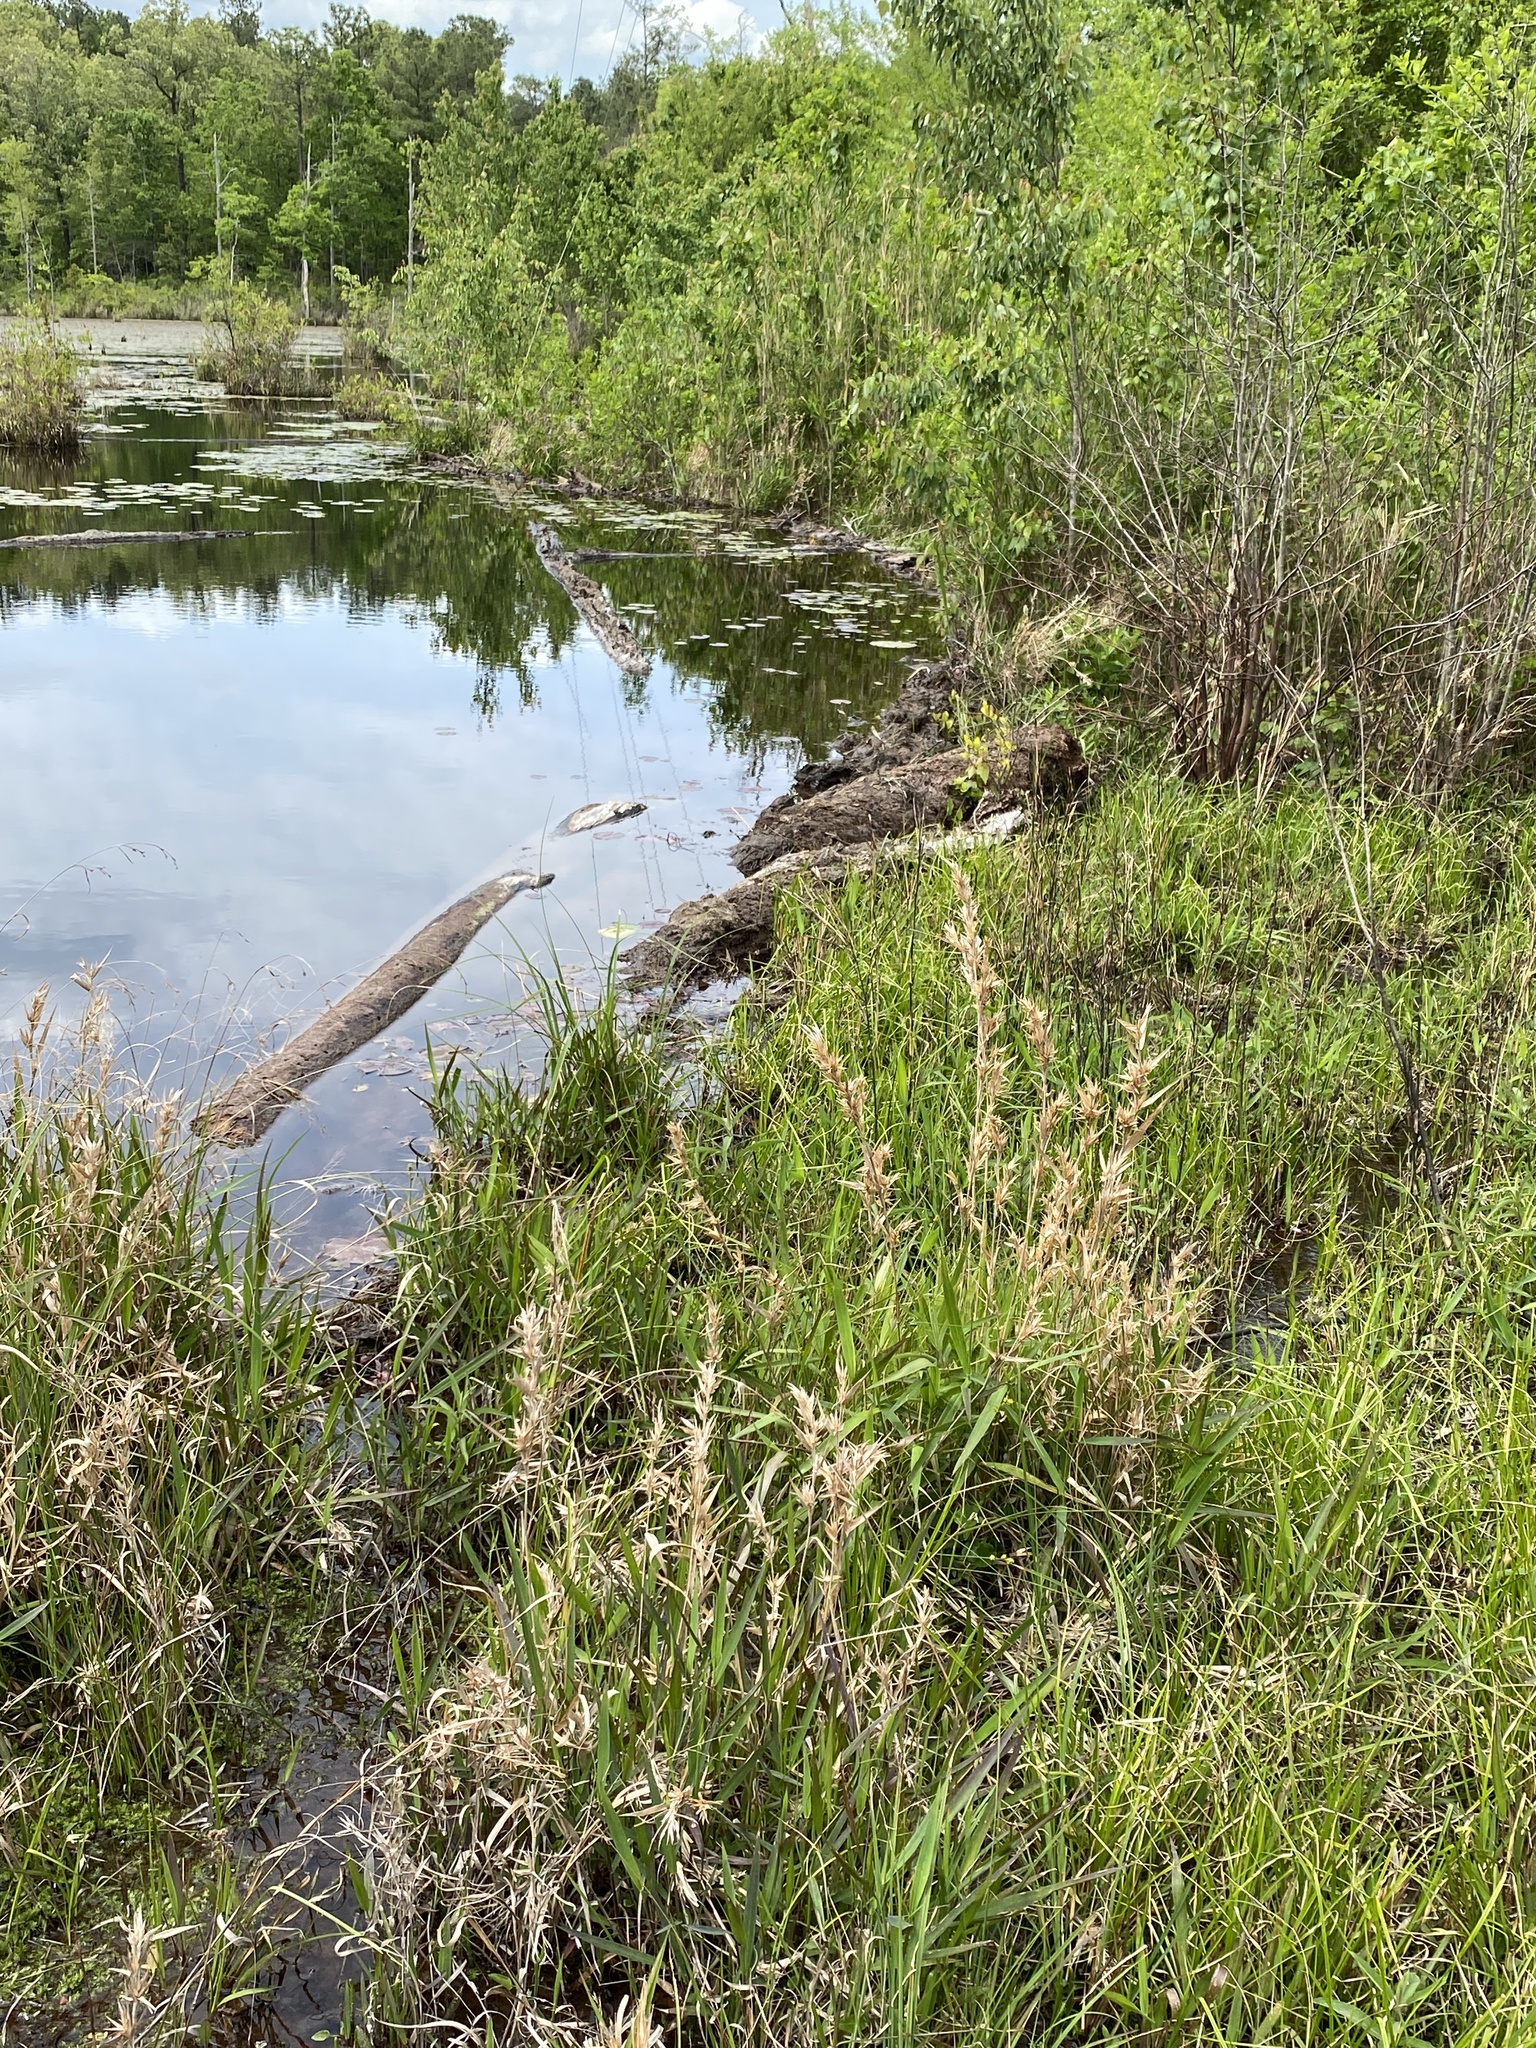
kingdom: Animalia
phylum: Chordata
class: Mammalia
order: Rodentia
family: Castoridae
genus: Castor
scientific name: Castor canadensis
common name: American beaver
